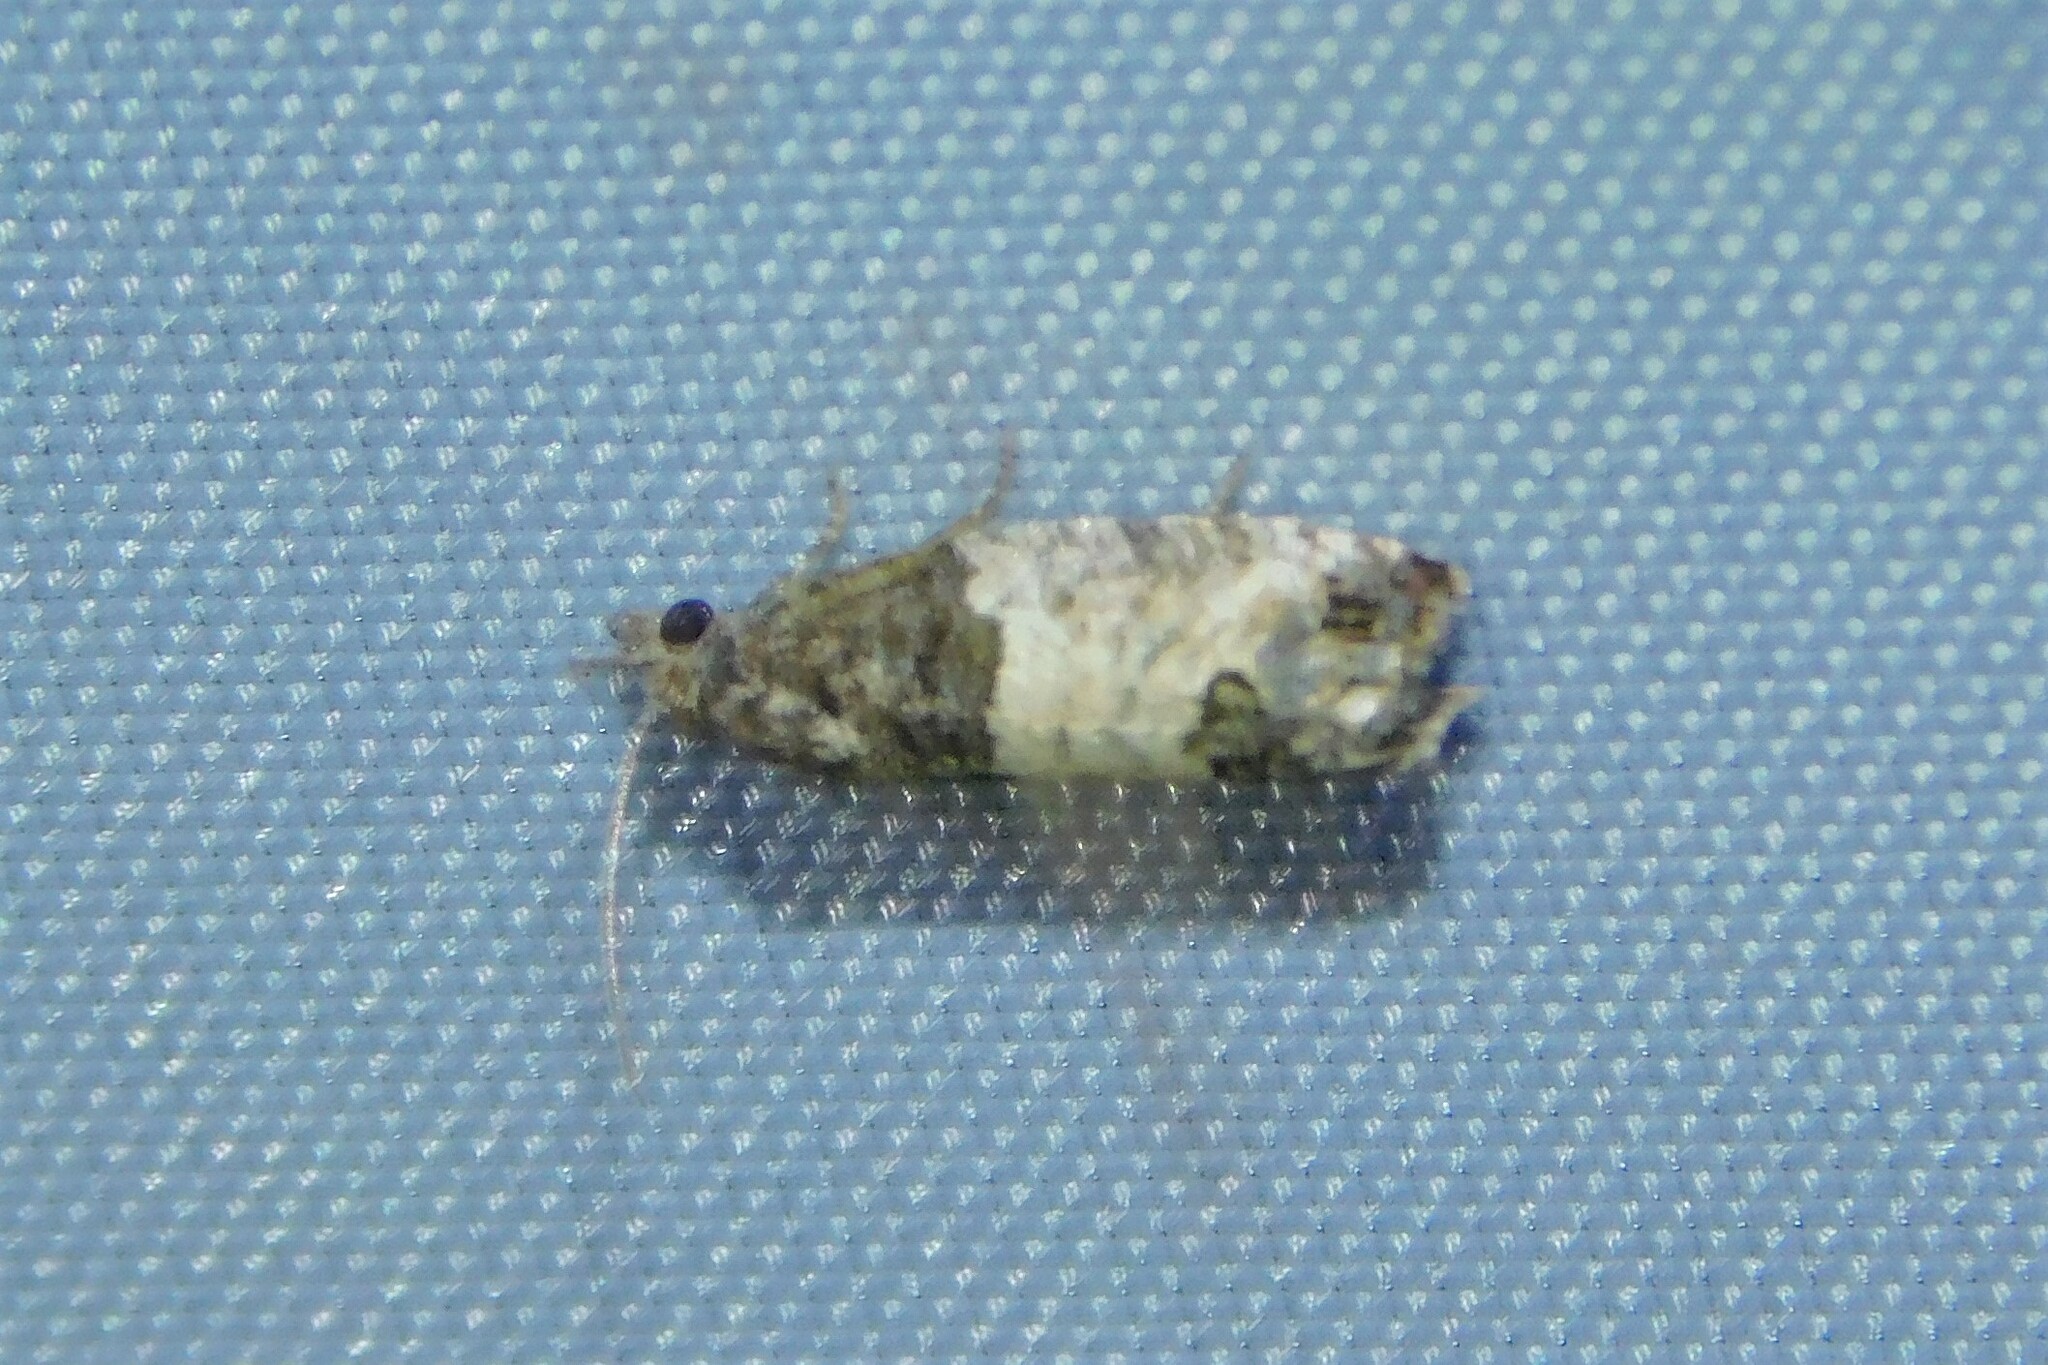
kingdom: Animalia
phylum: Arthropoda
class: Insecta
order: Lepidoptera
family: Tortricidae
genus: Spilonota
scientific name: Spilonota ocellana
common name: Bud moth
